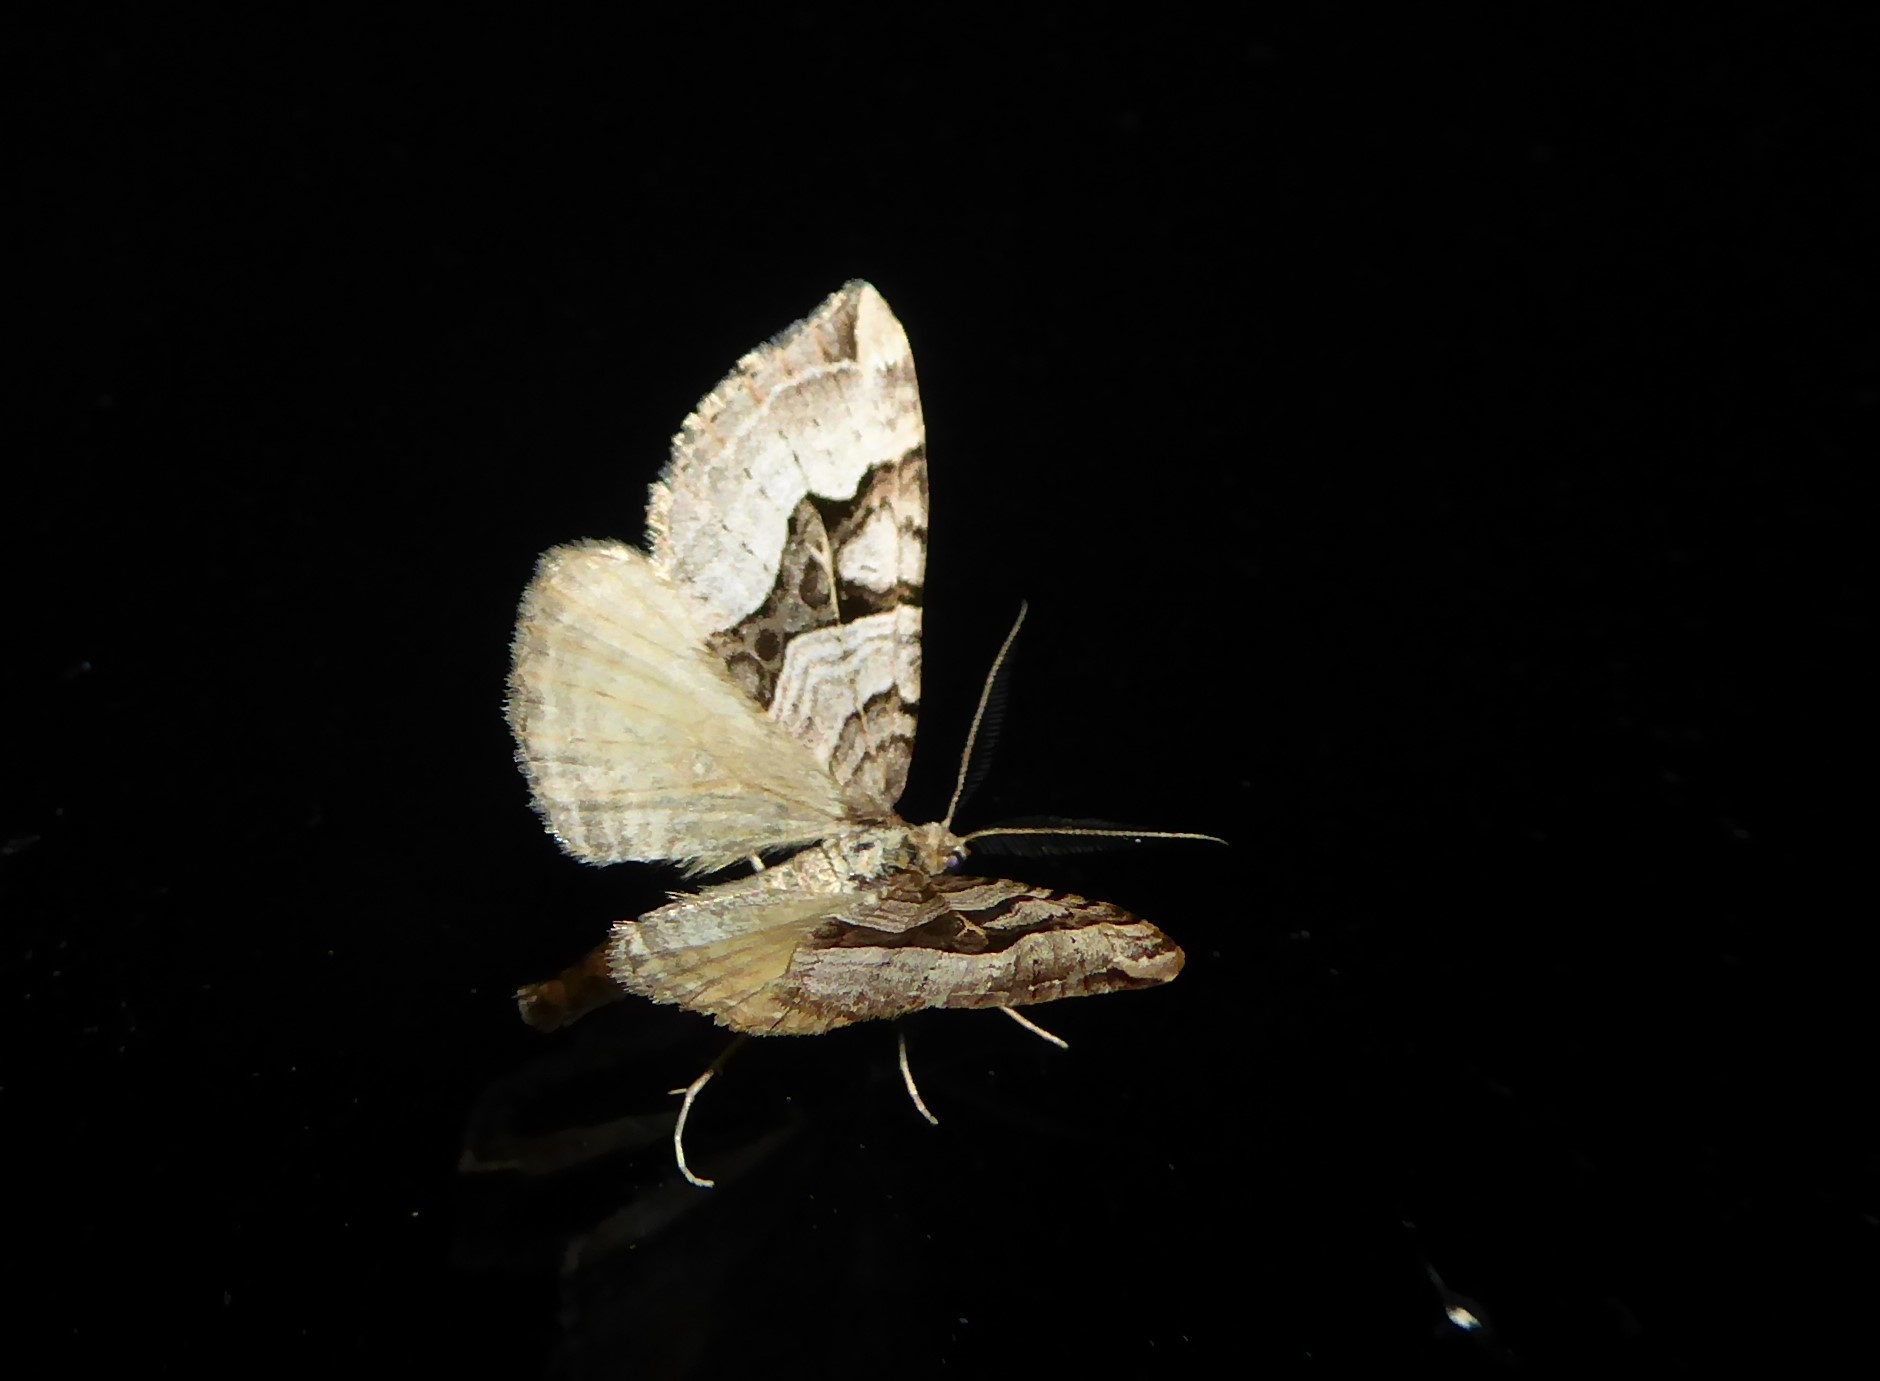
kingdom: Animalia
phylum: Arthropoda
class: Insecta
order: Lepidoptera
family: Geometridae
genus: Xanthorhoe
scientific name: Xanthorhoe semifissata
